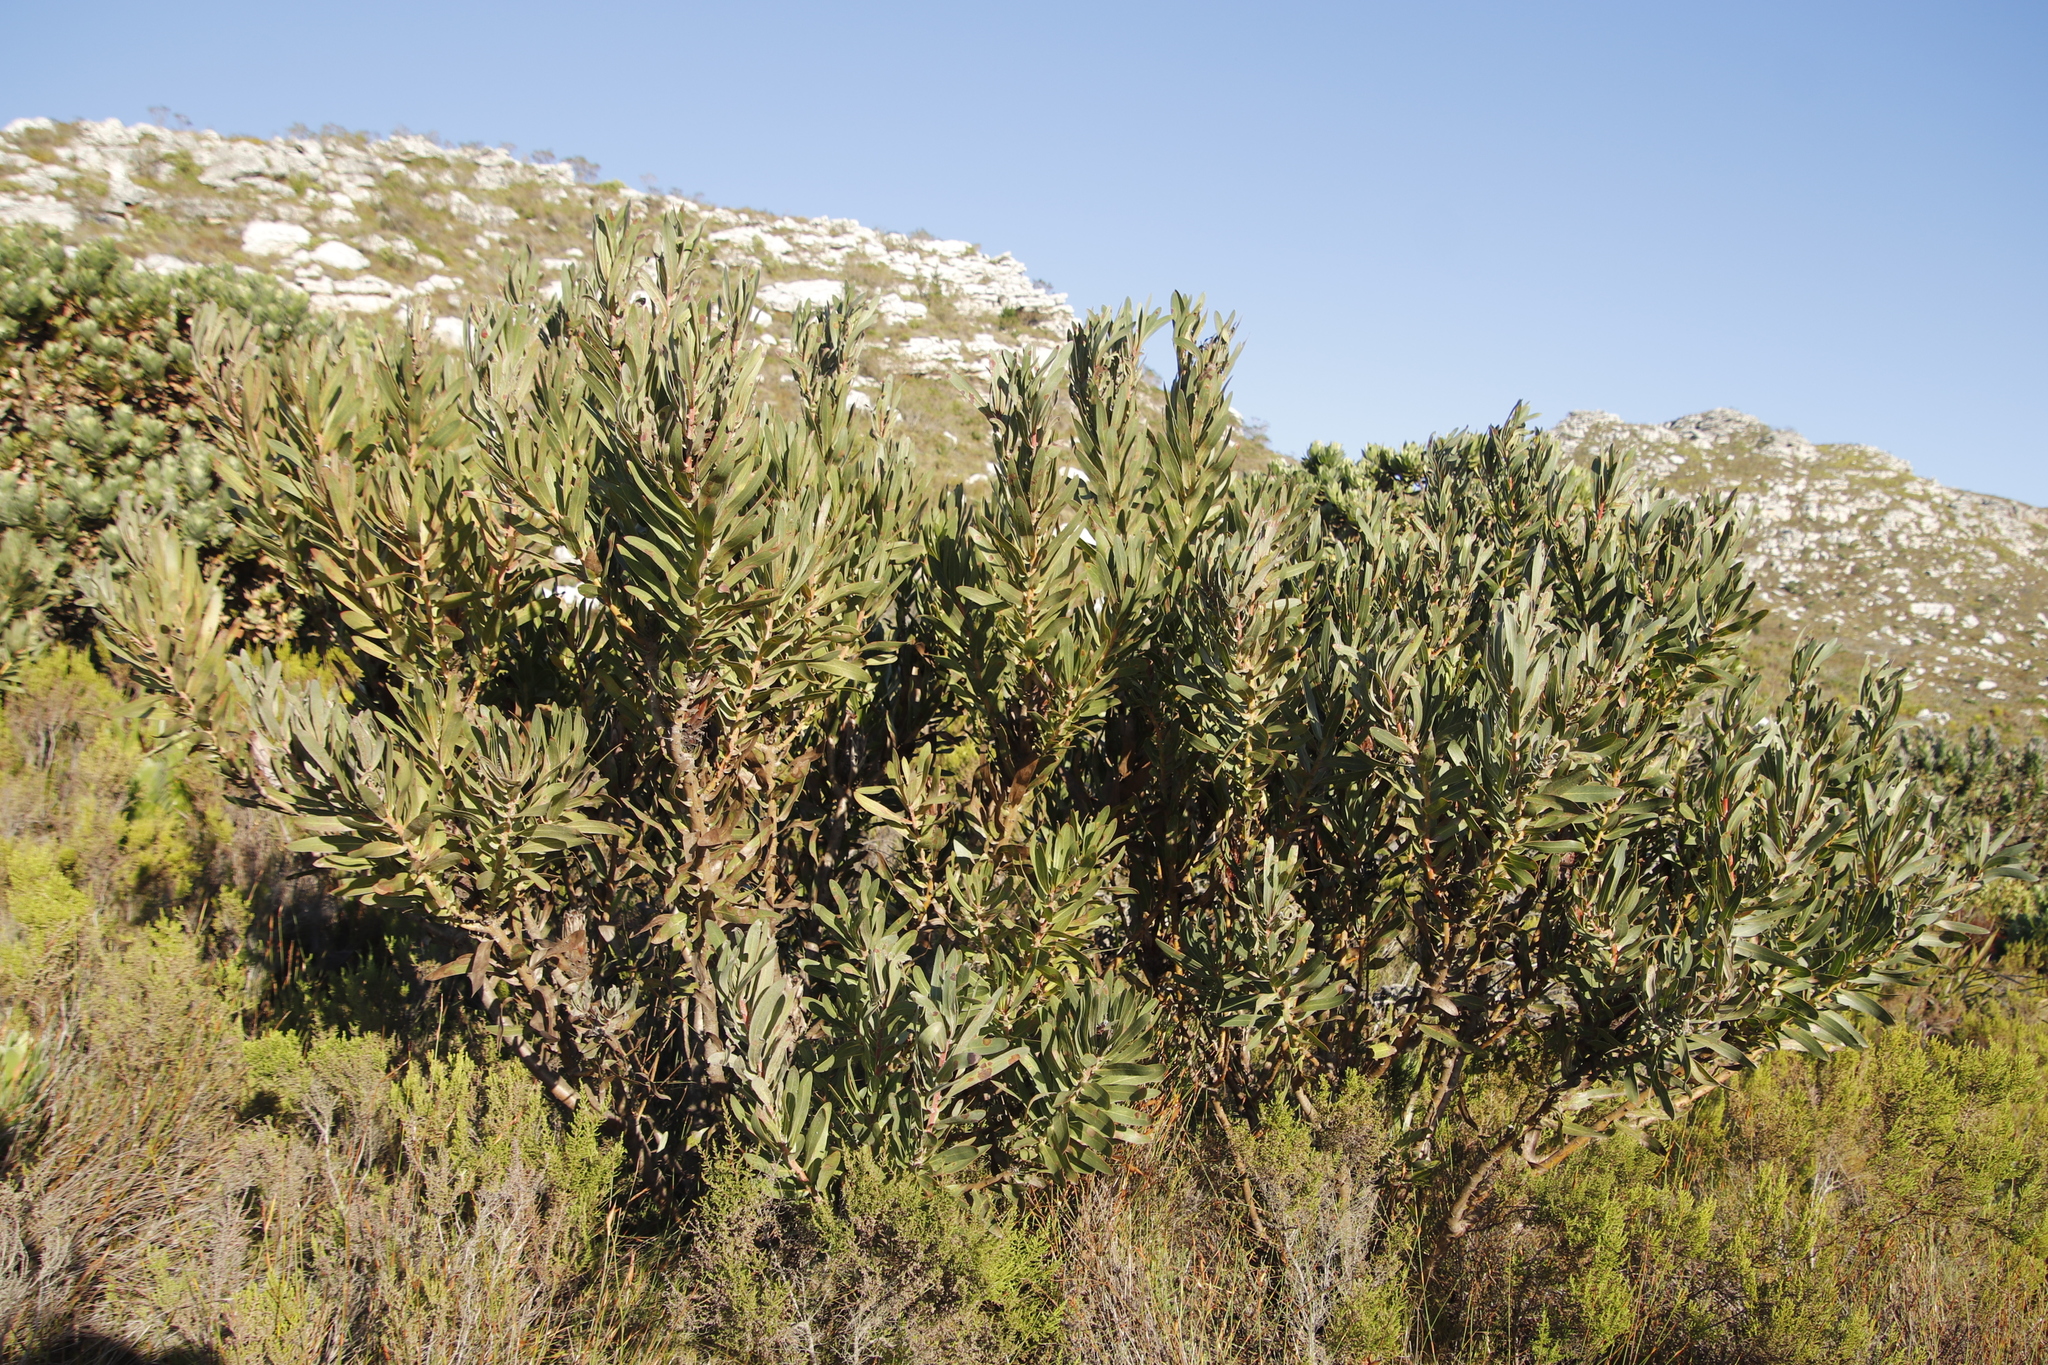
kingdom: Plantae
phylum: Tracheophyta
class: Magnoliopsida
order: Proteales
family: Proteaceae
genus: Protea
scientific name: Protea lepidocarpodendron
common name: Black-bearded protea
